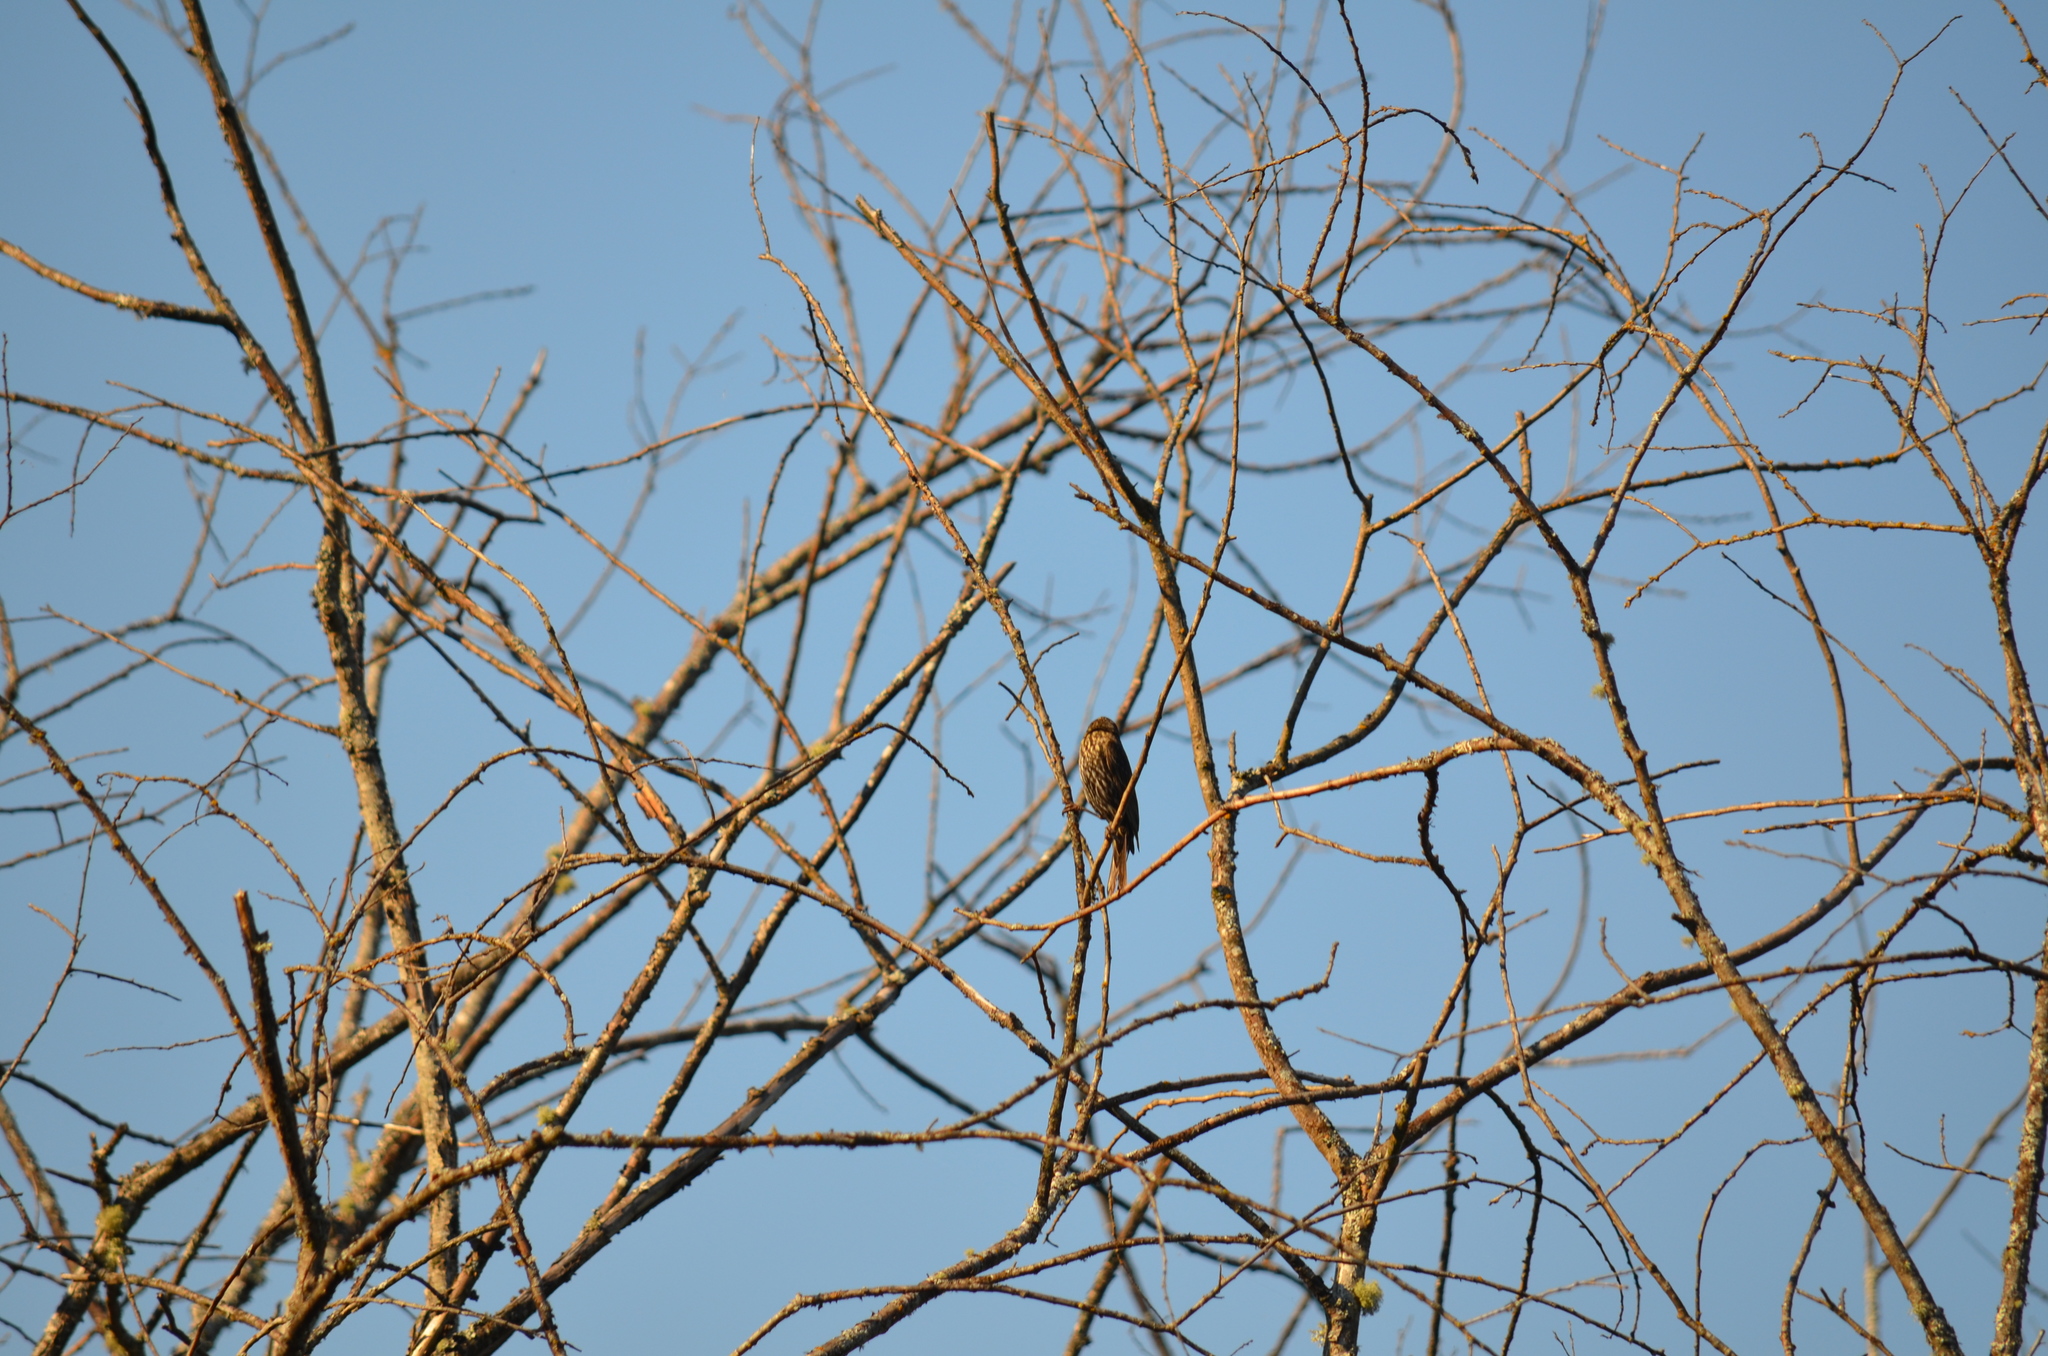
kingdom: Animalia
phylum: Chordata
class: Aves
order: Passeriformes
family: Icteridae
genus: Agelaius
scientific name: Agelaius phoeniceus
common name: Red-winged blackbird
